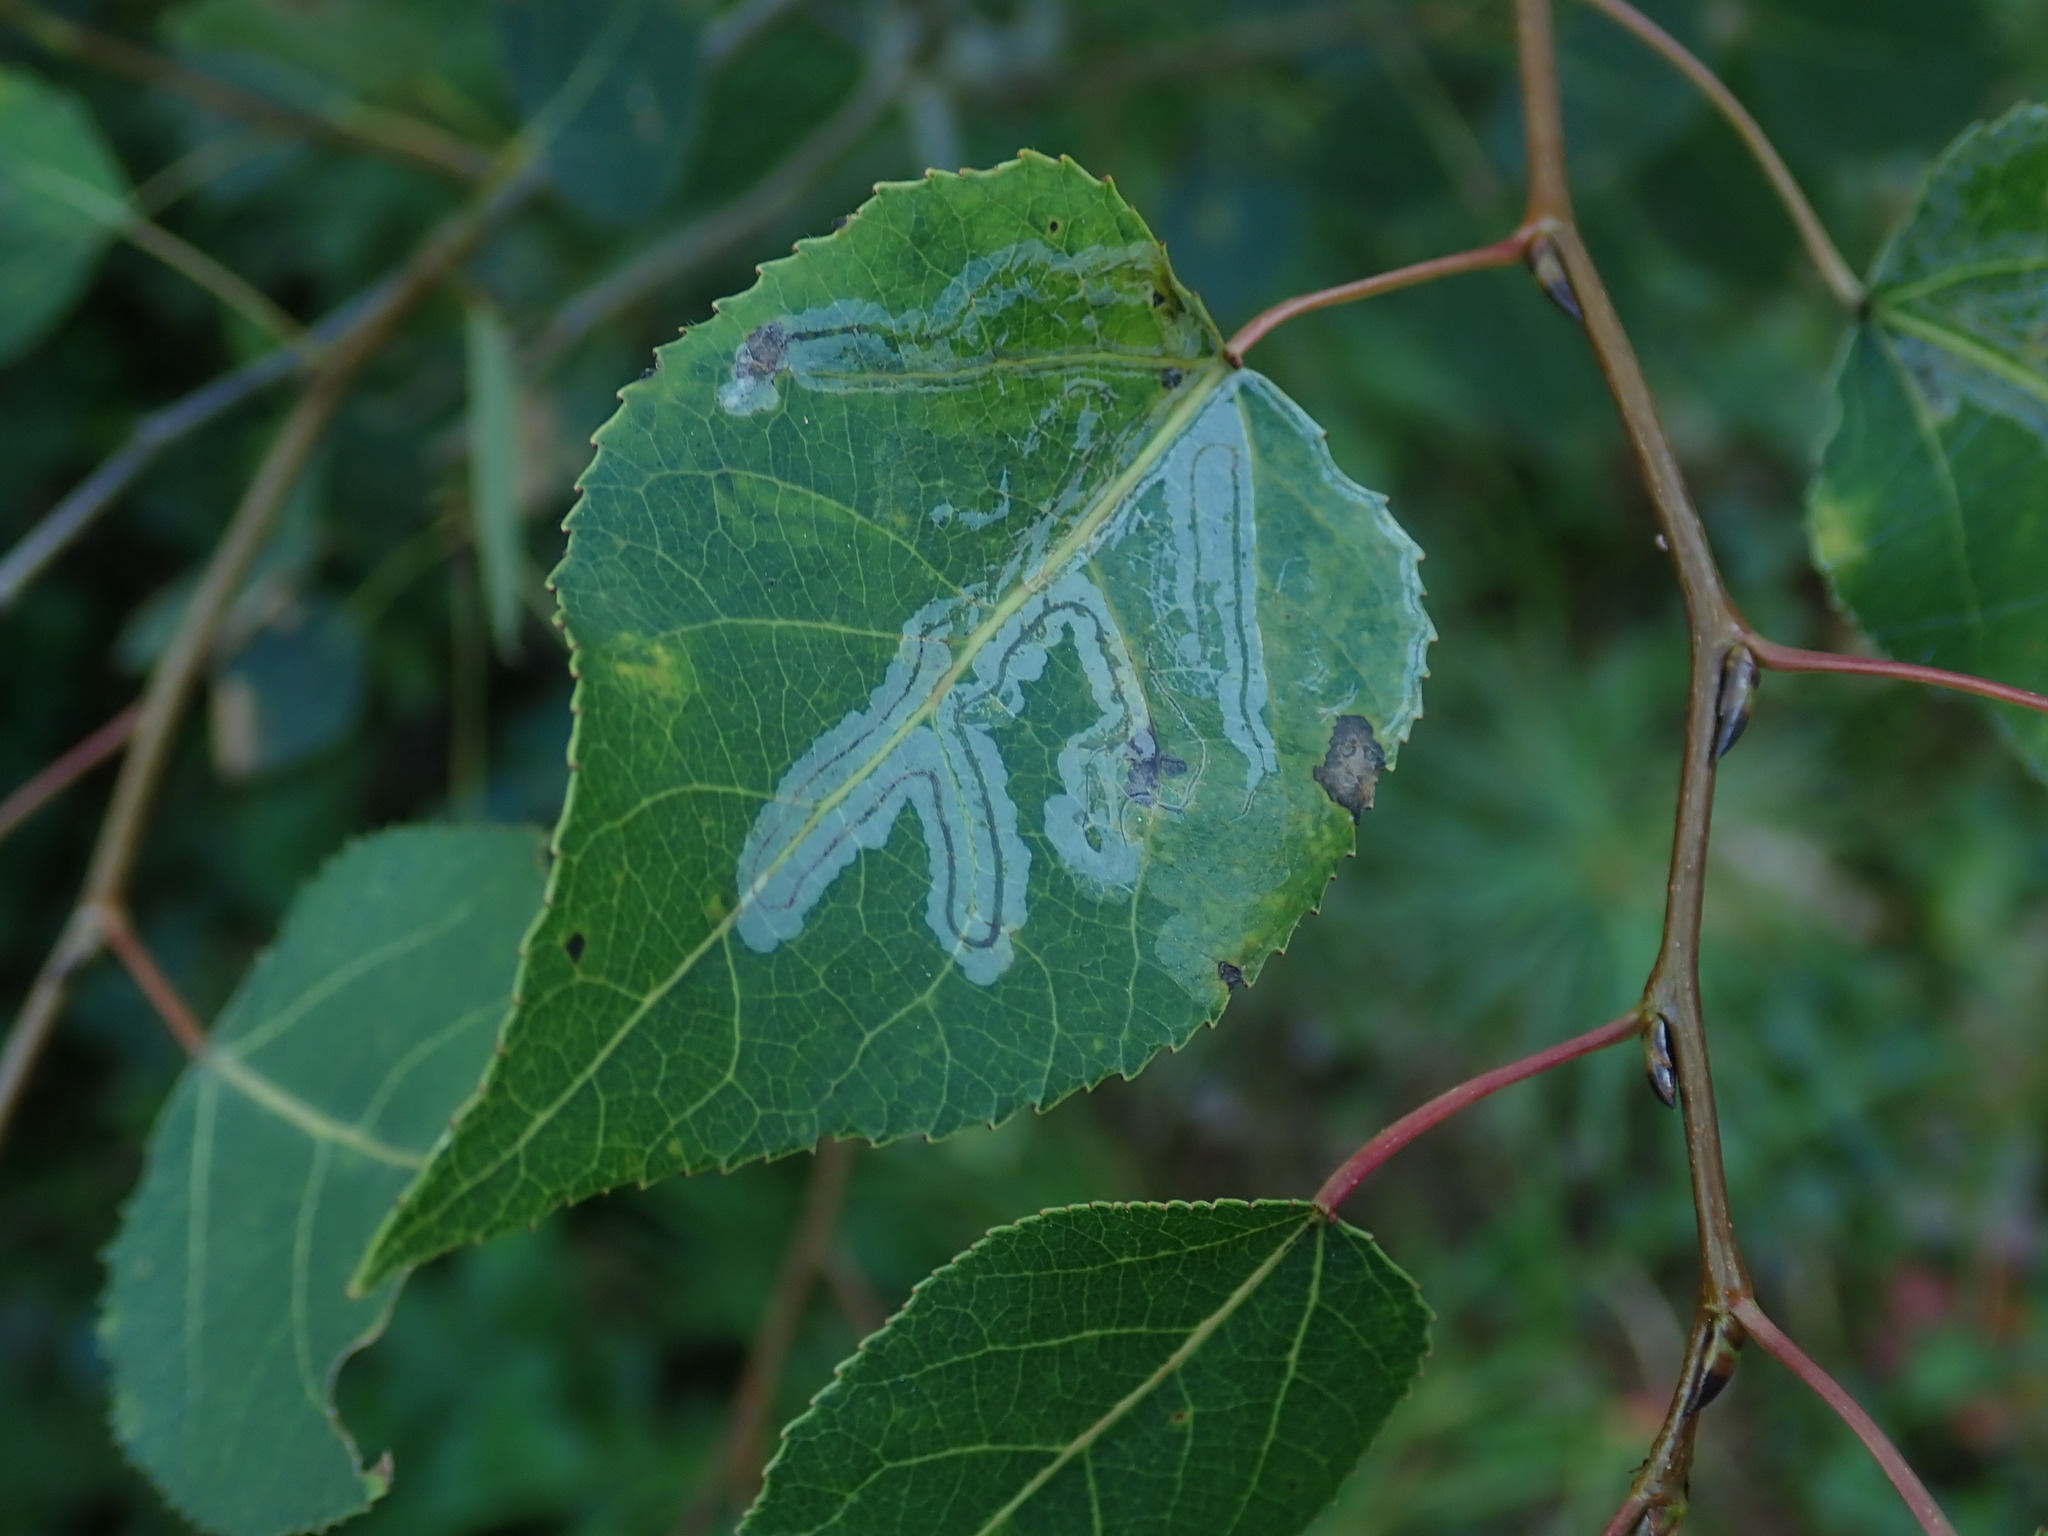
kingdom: Animalia
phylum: Arthropoda
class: Insecta
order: Lepidoptera
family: Gracillariidae
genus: Phyllocnistis
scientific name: Phyllocnistis populiella
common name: Aspen serpentine leafminer moth
